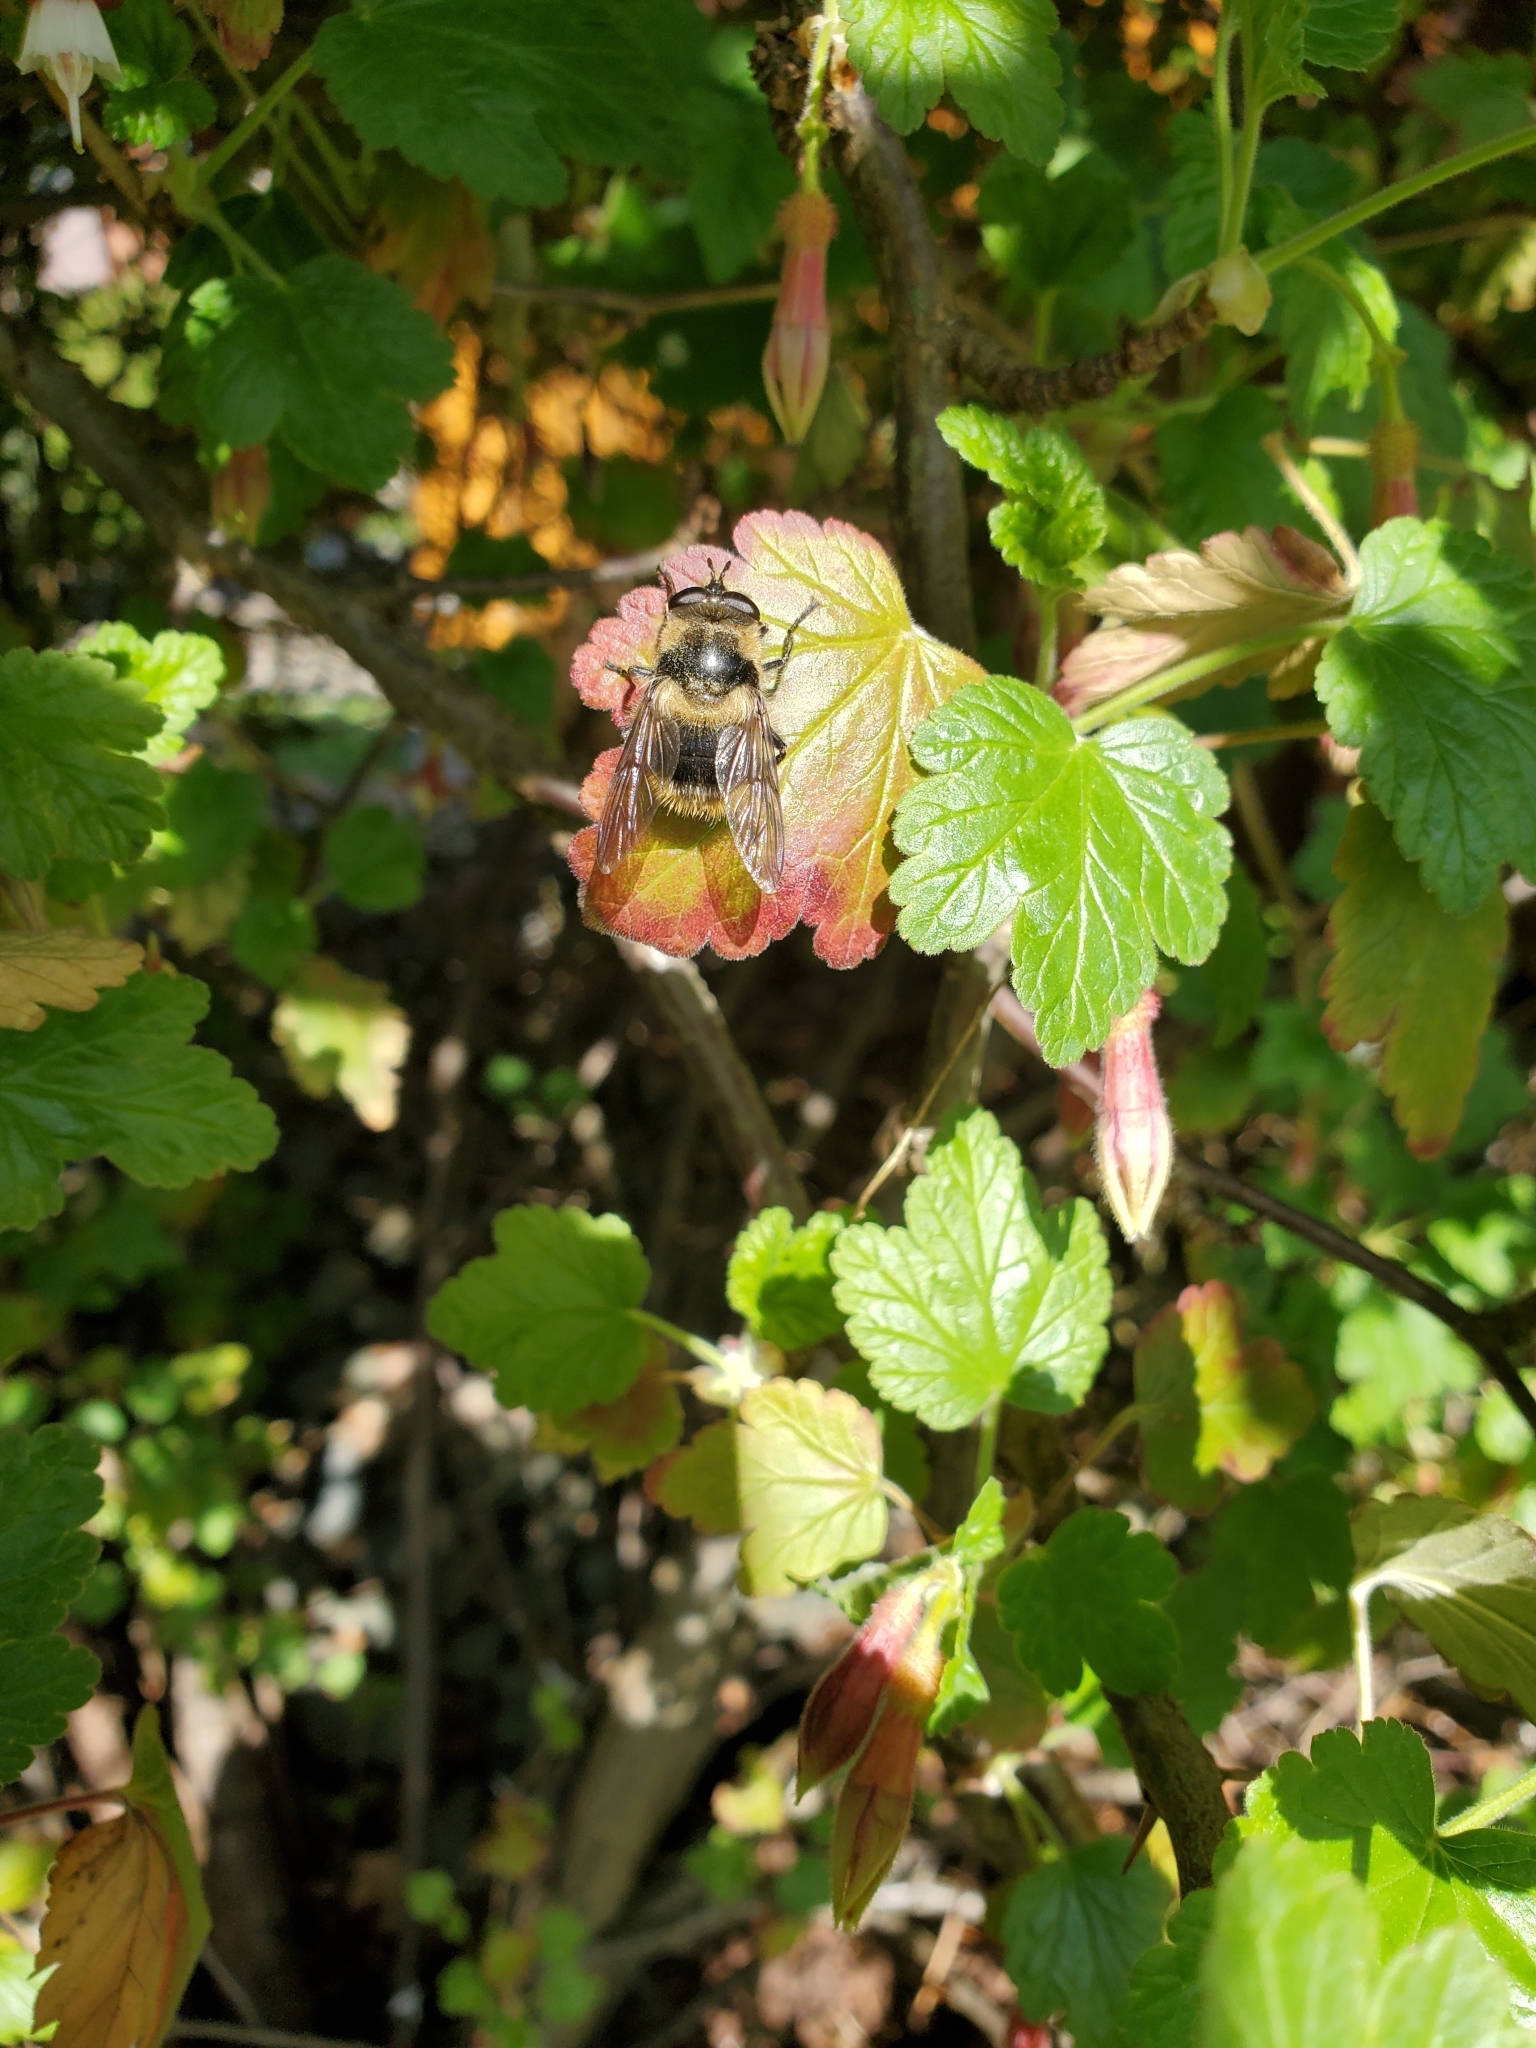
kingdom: Animalia
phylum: Arthropoda
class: Insecta
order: Diptera
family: Syrphidae
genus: Criorhina
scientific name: Criorhina nigripes
